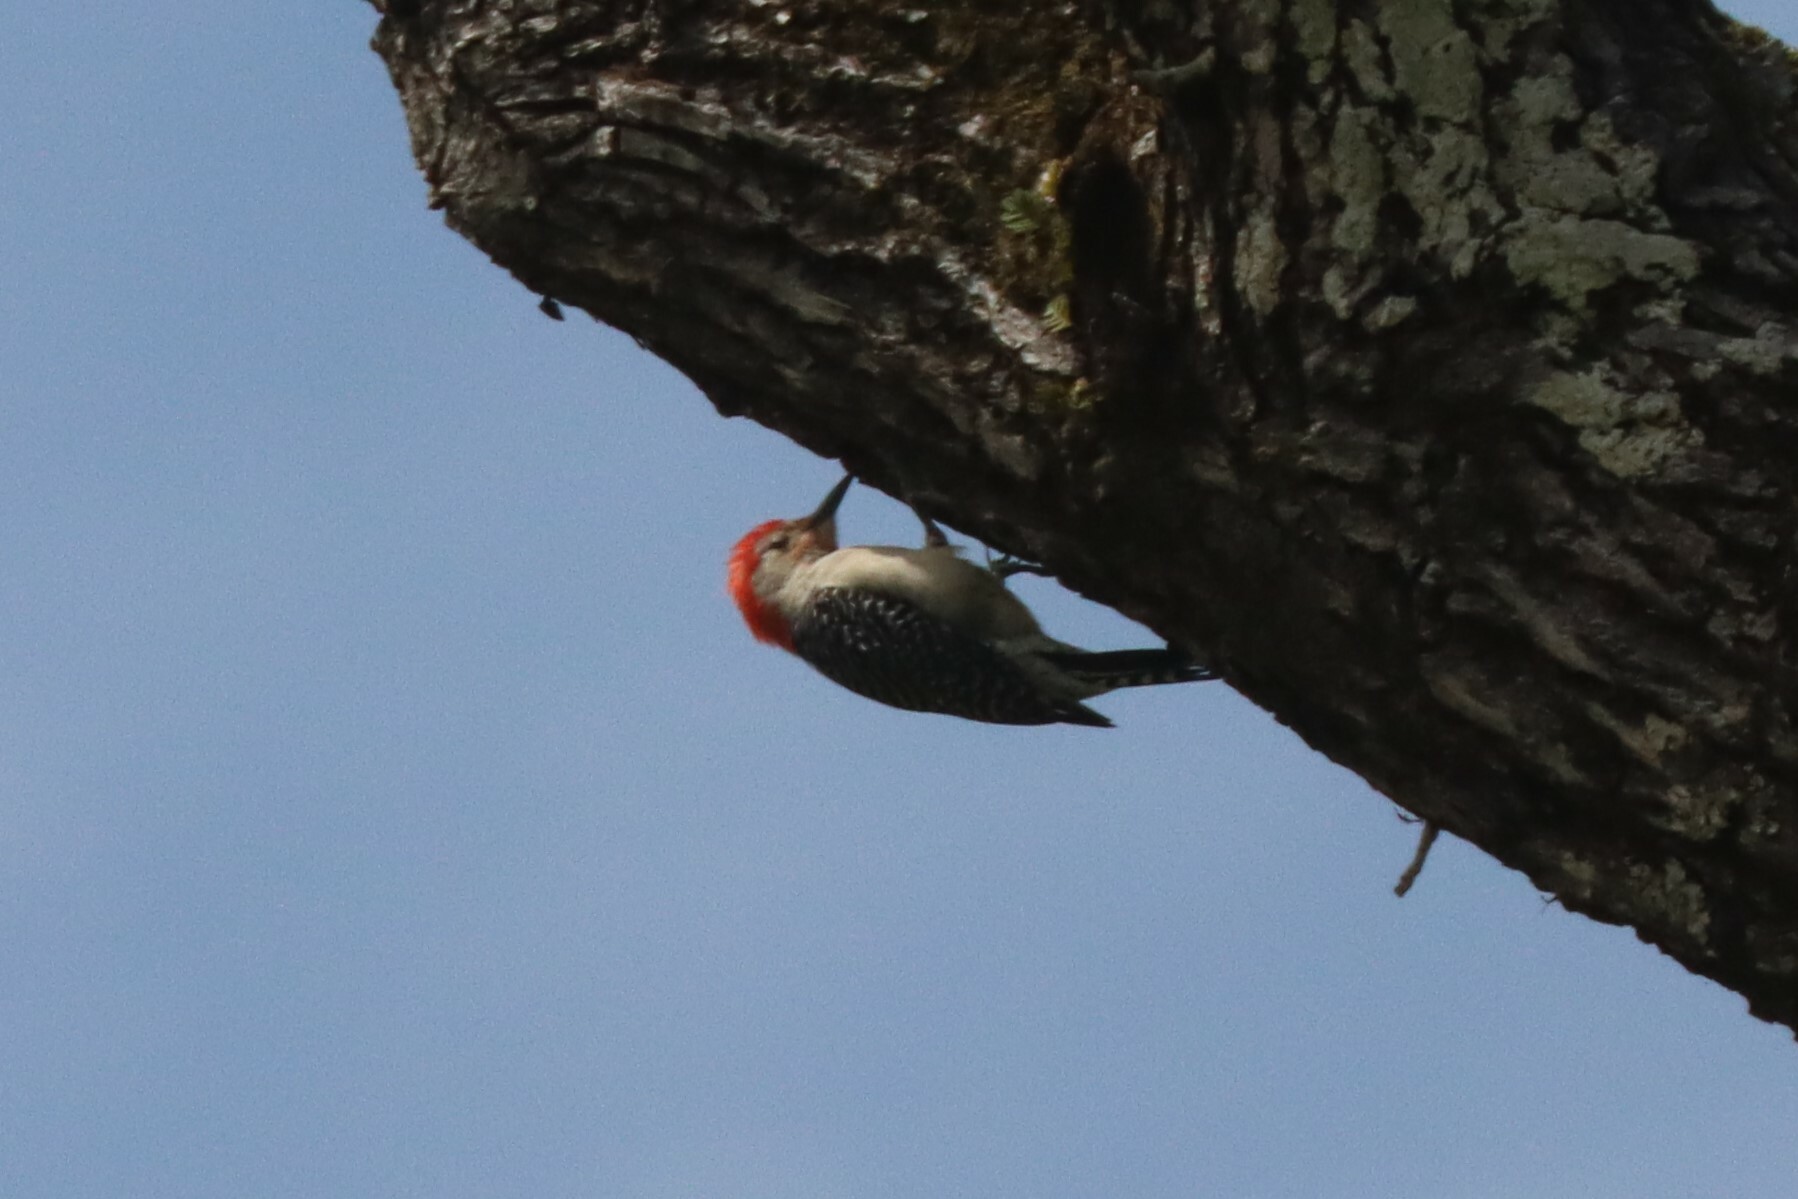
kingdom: Animalia
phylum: Chordata
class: Aves
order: Piciformes
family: Picidae
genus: Melanerpes
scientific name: Melanerpes carolinus
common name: Red-bellied woodpecker
